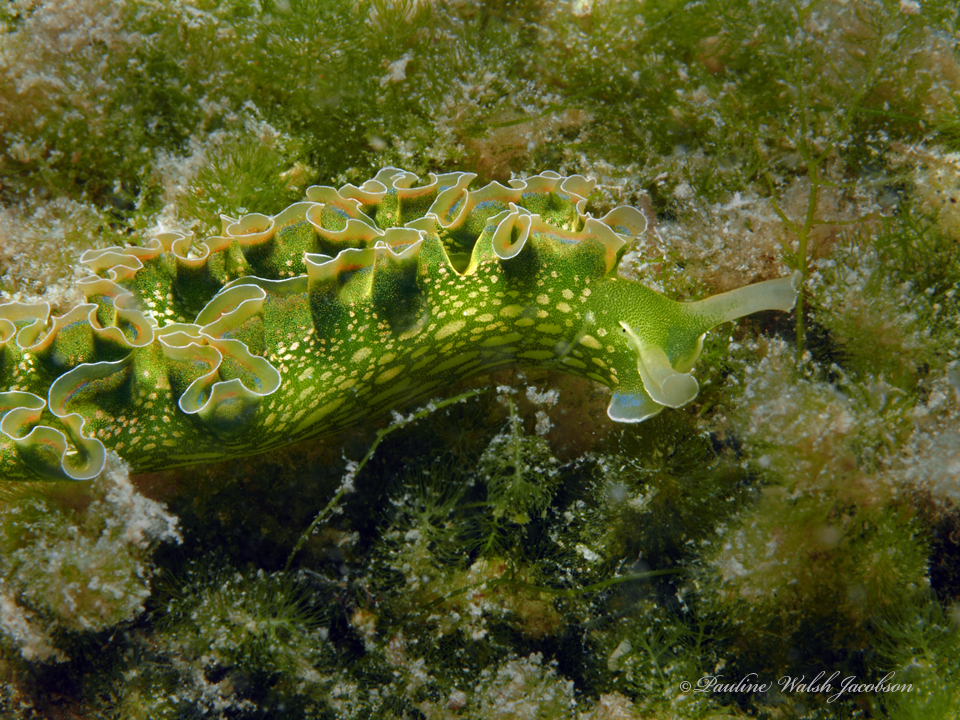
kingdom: Animalia
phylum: Mollusca
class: Gastropoda
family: Plakobranchidae
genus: Elysia
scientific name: Elysia crispata
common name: Lettuce slug
